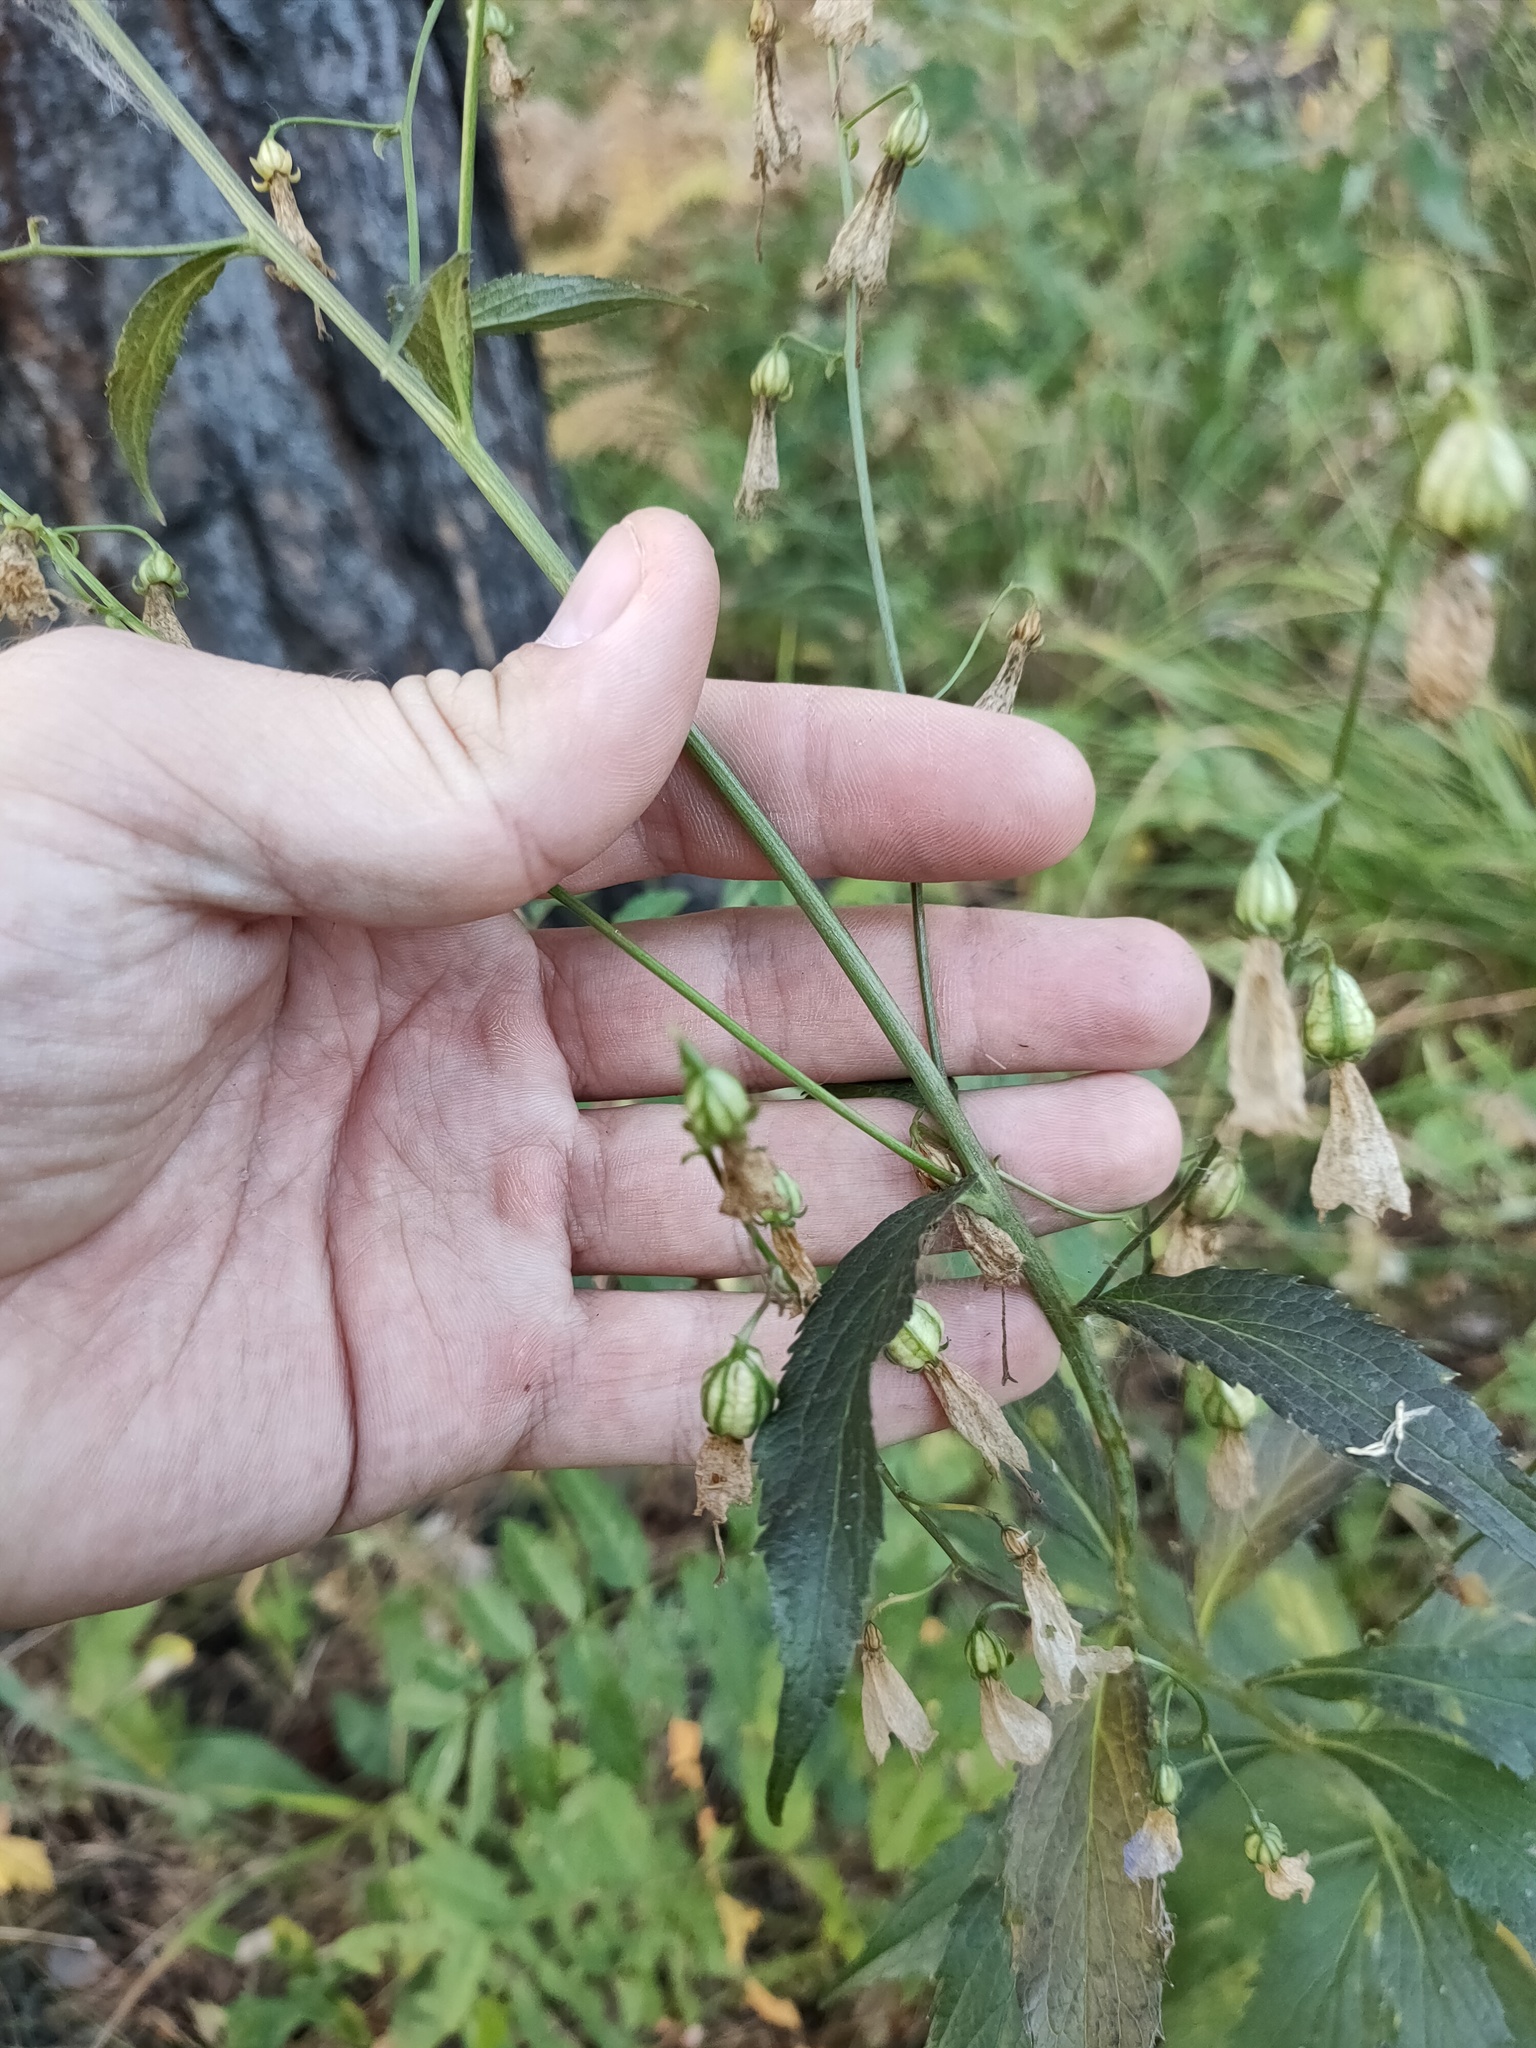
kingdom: Plantae
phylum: Tracheophyta
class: Magnoliopsida
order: Asterales
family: Campanulaceae
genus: Adenophora
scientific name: Adenophora liliifolia
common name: Lilyleaf ladybells
